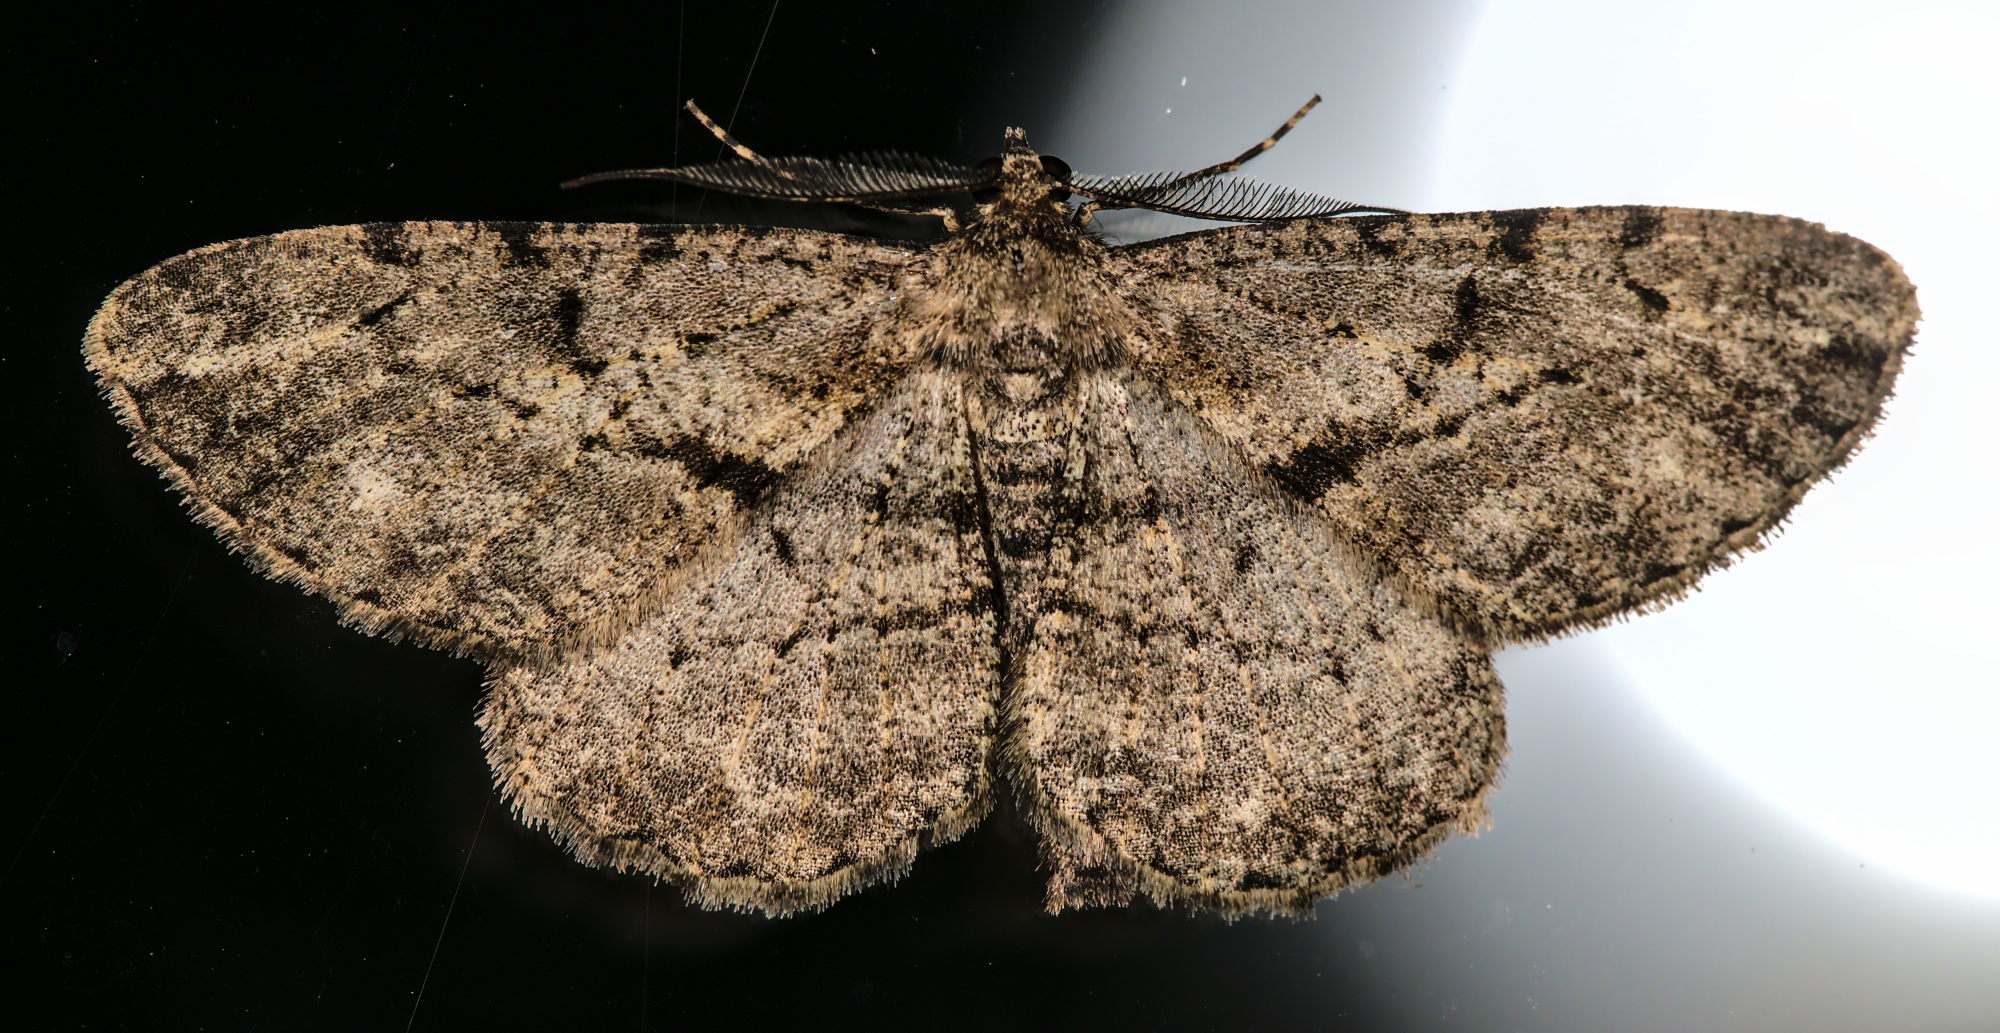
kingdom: Animalia
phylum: Arthropoda
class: Insecta
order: Lepidoptera
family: Geometridae
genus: Peribatodes
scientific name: Peribatodes rhomboidaria
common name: Willow beauty
